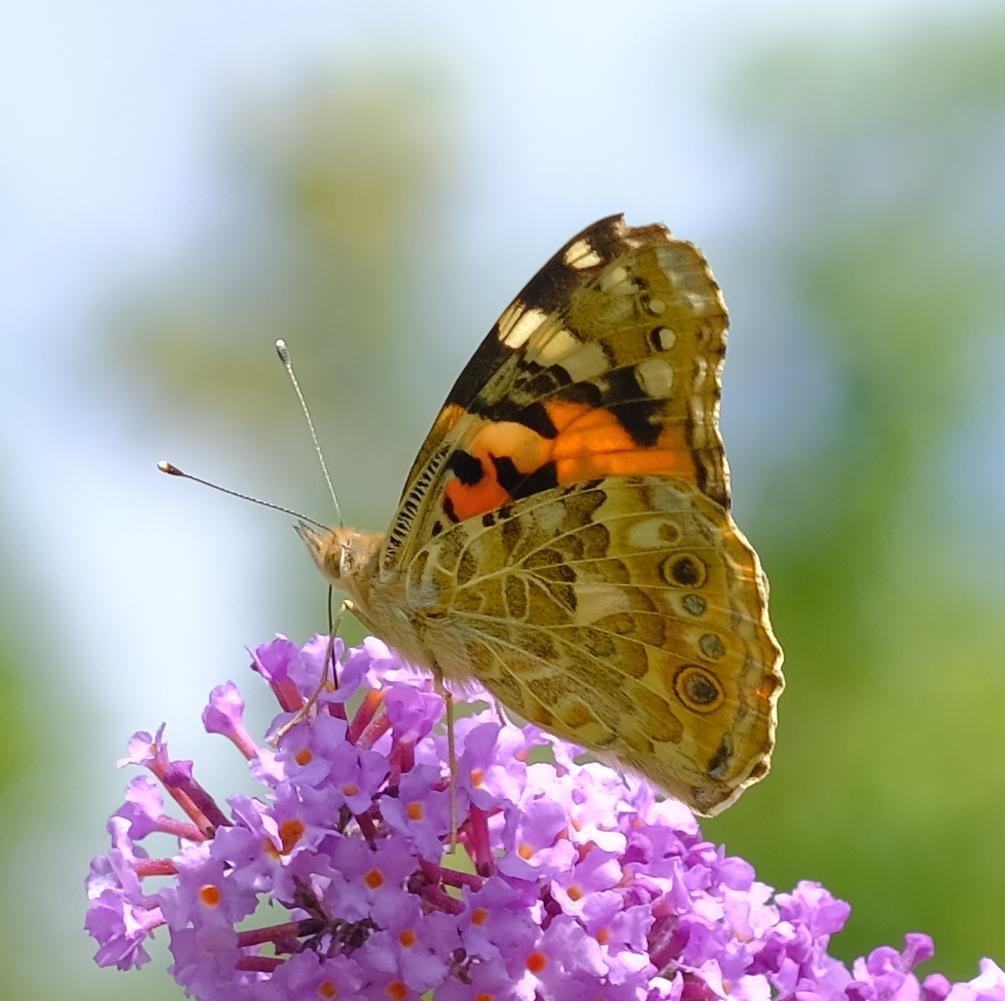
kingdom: Animalia
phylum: Arthropoda
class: Insecta
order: Lepidoptera
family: Nymphalidae
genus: Vanessa
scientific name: Vanessa cardui
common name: Painted lady
